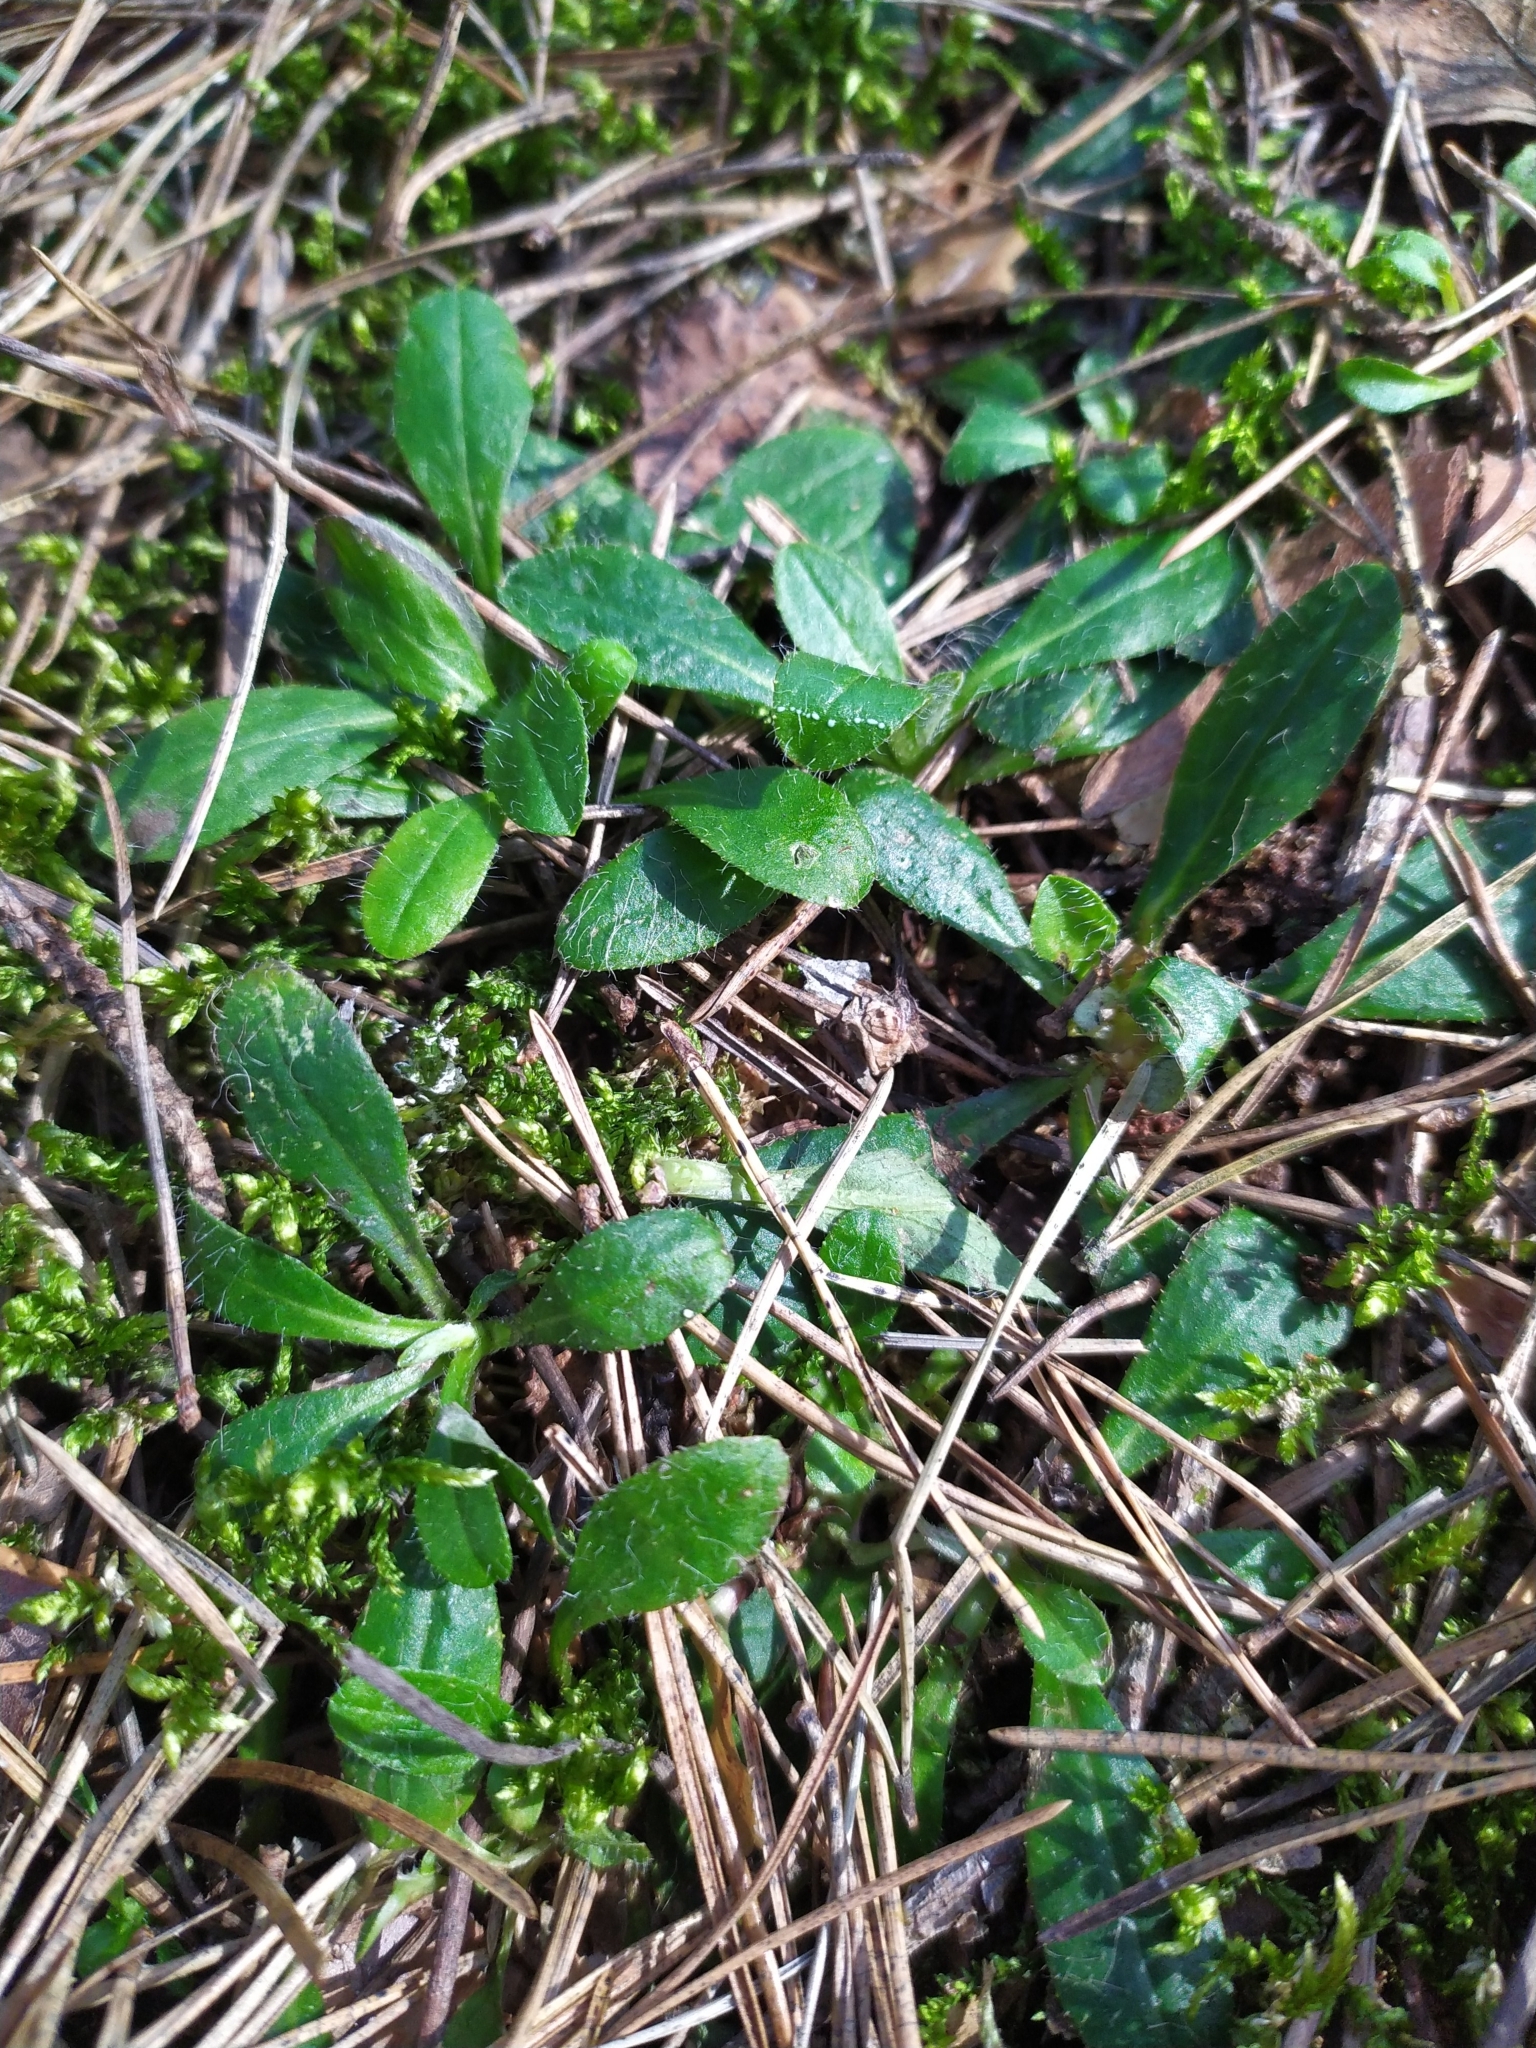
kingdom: Plantae
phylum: Tracheophyta
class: Magnoliopsida
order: Asterales
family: Asteraceae
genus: Pilosella
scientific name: Pilosella officinarum
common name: Mouse-ear hawkweed
